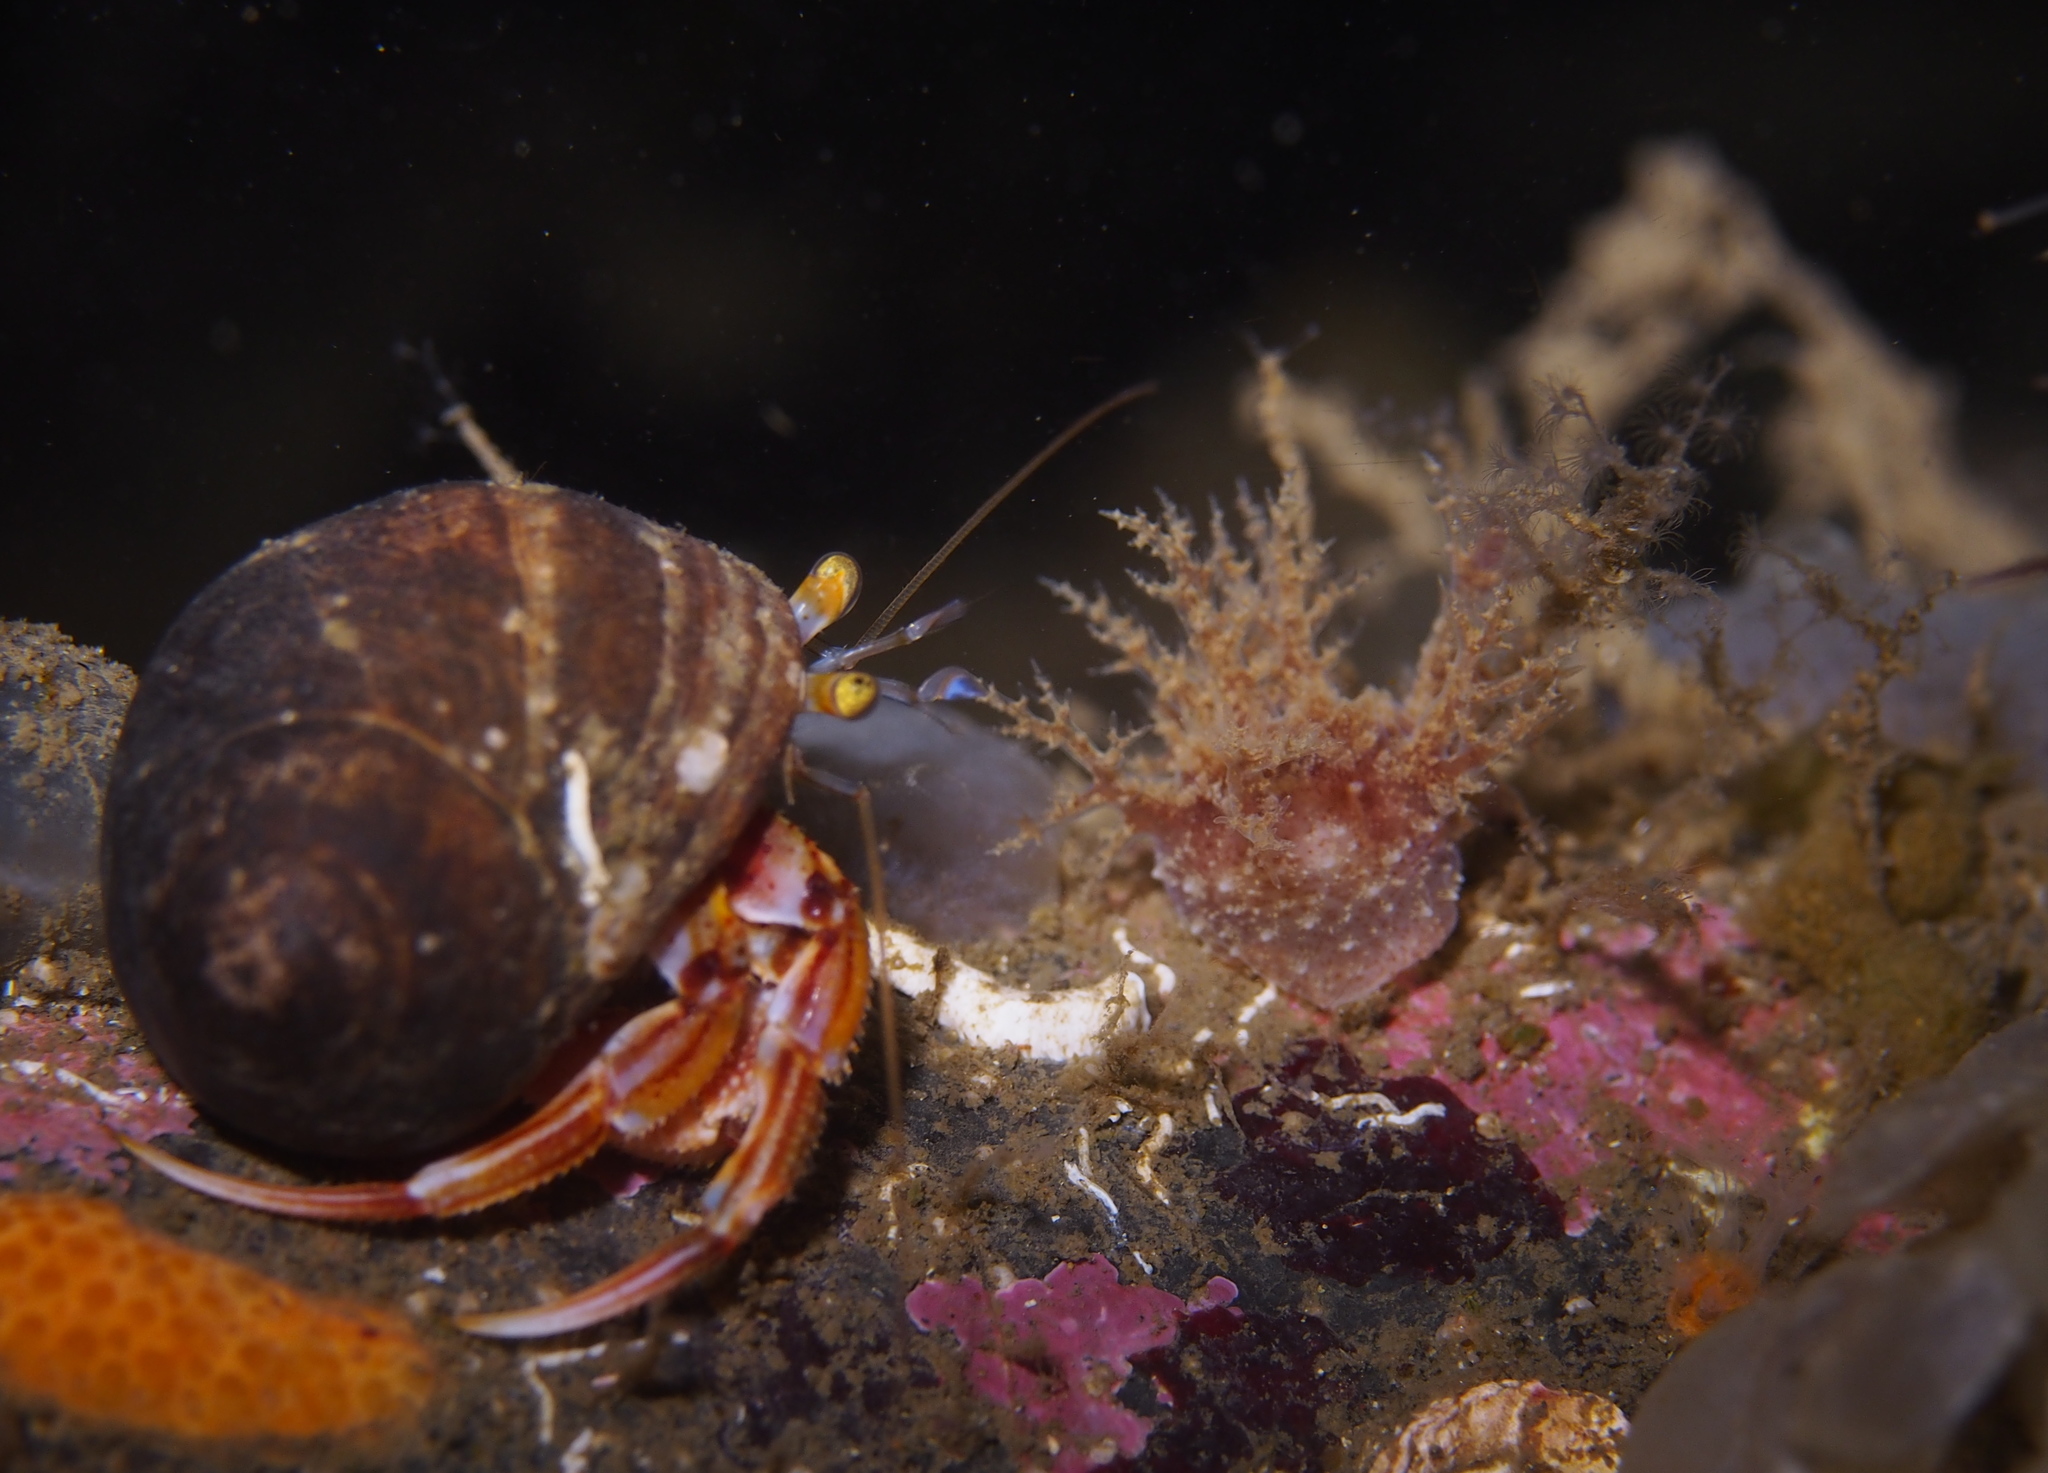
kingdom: Animalia
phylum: Mollusca
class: Gastropoda
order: Nudibranchia
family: Dendronotidae
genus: Dendronotus
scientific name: Dendronotus frondosus
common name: Bushy-backed nudibranch
